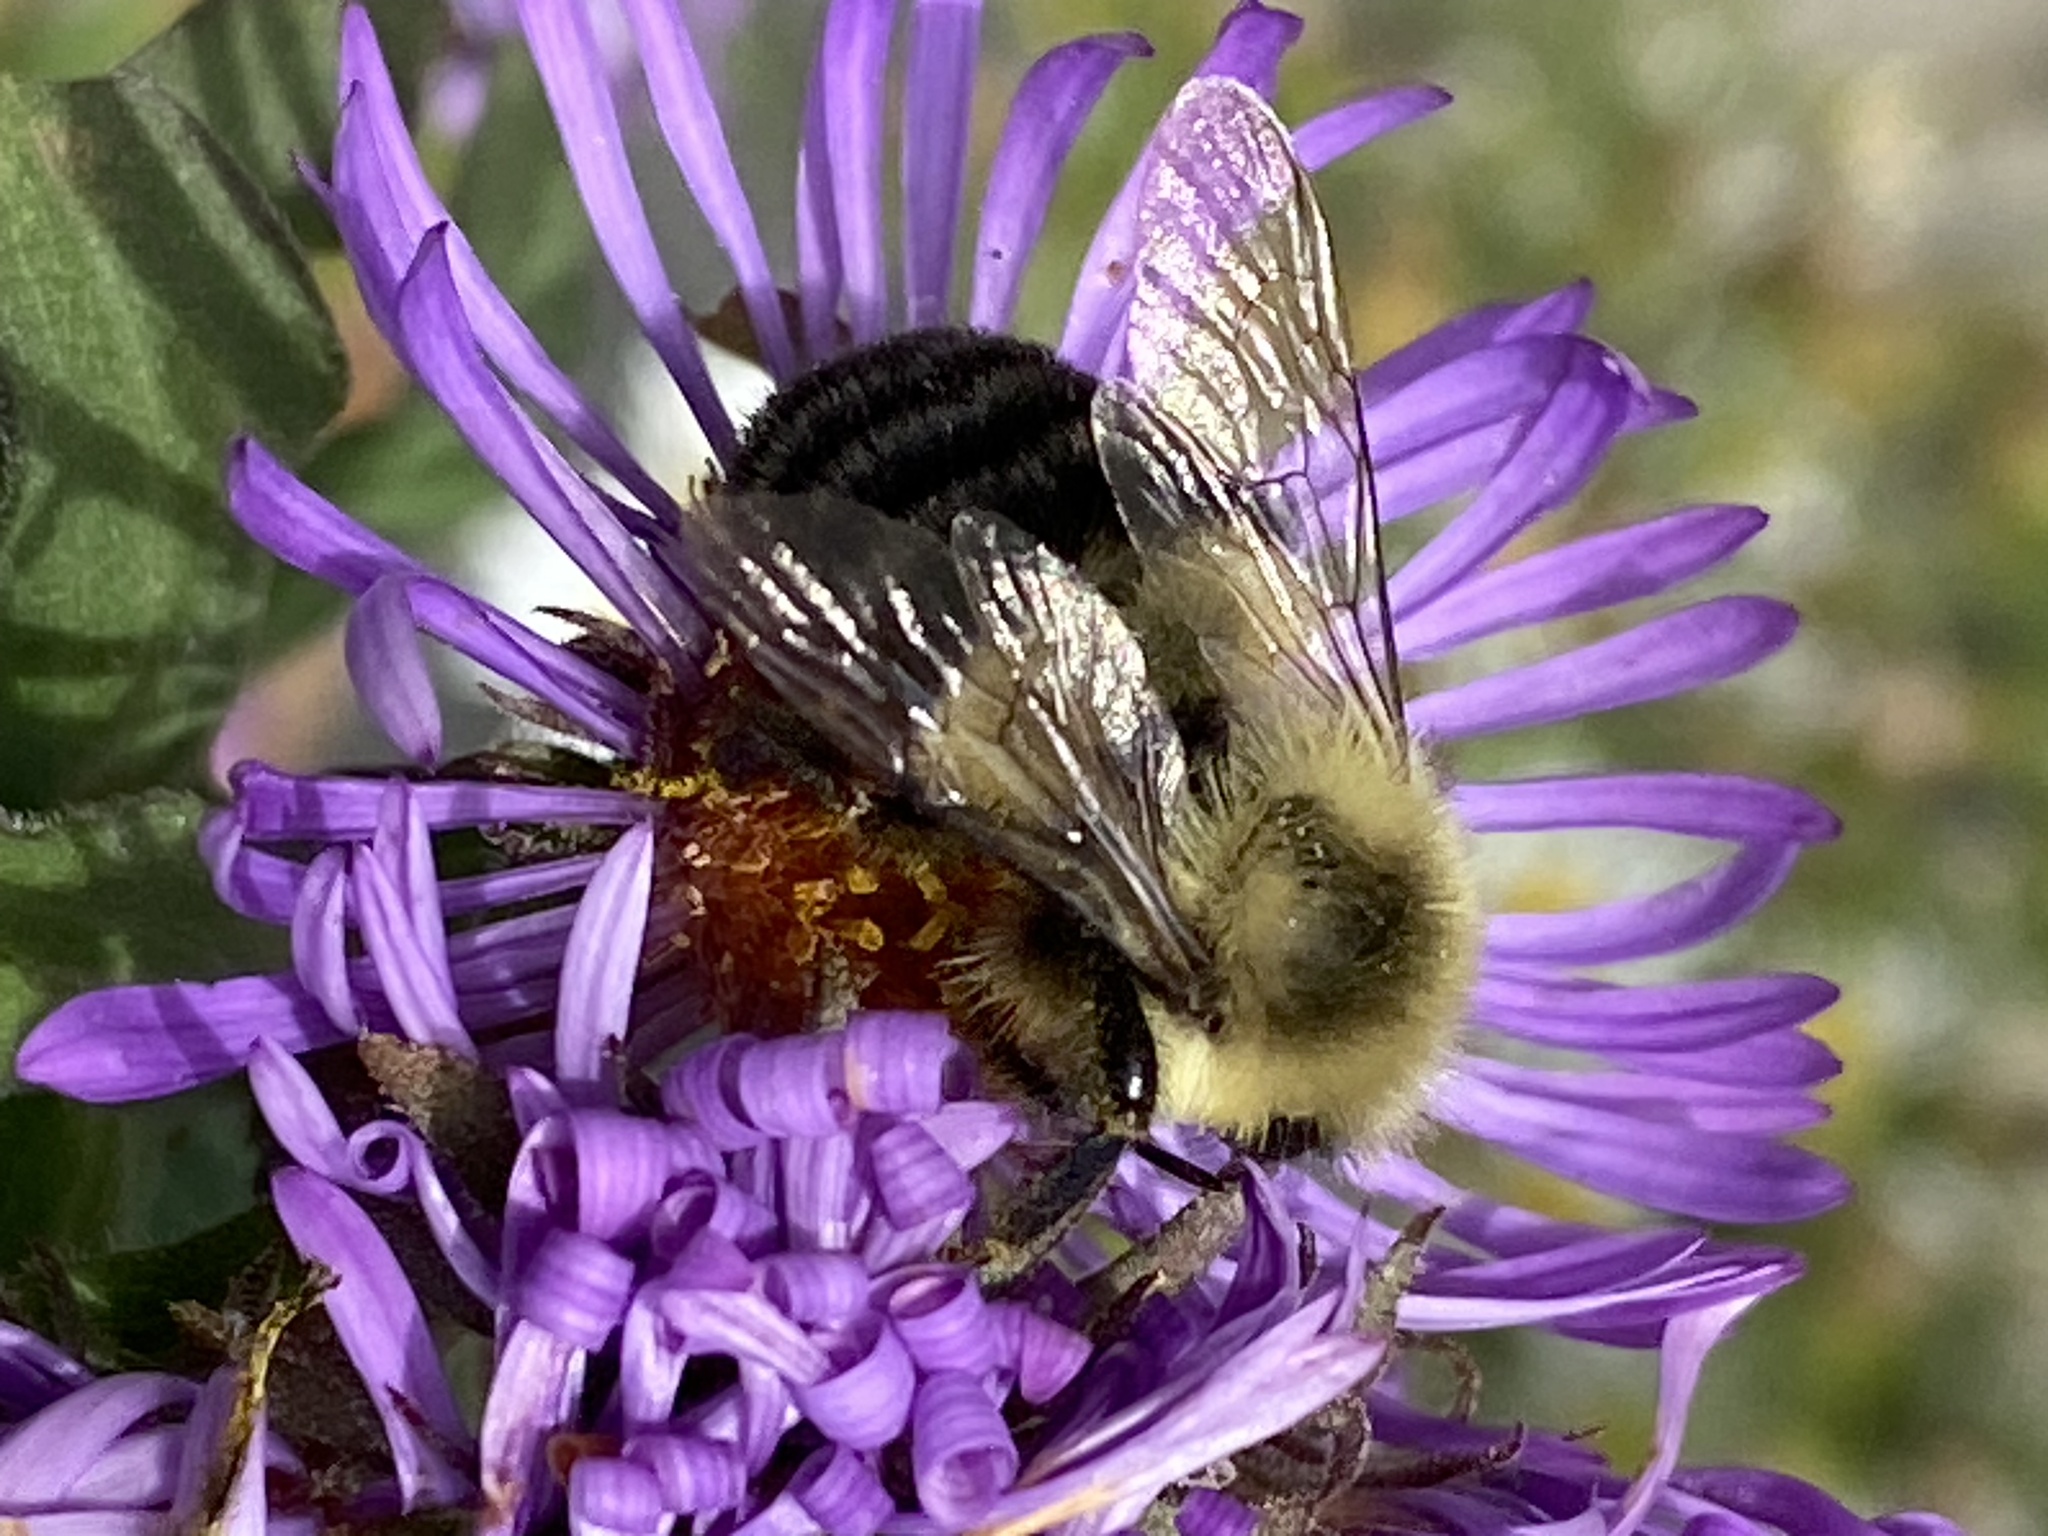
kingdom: Animalia
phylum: Arthropoda
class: Insecta
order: Hymenoptera
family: Apidae
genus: Bombus
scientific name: Bombus impatiens
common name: Common eastern bumble bee
